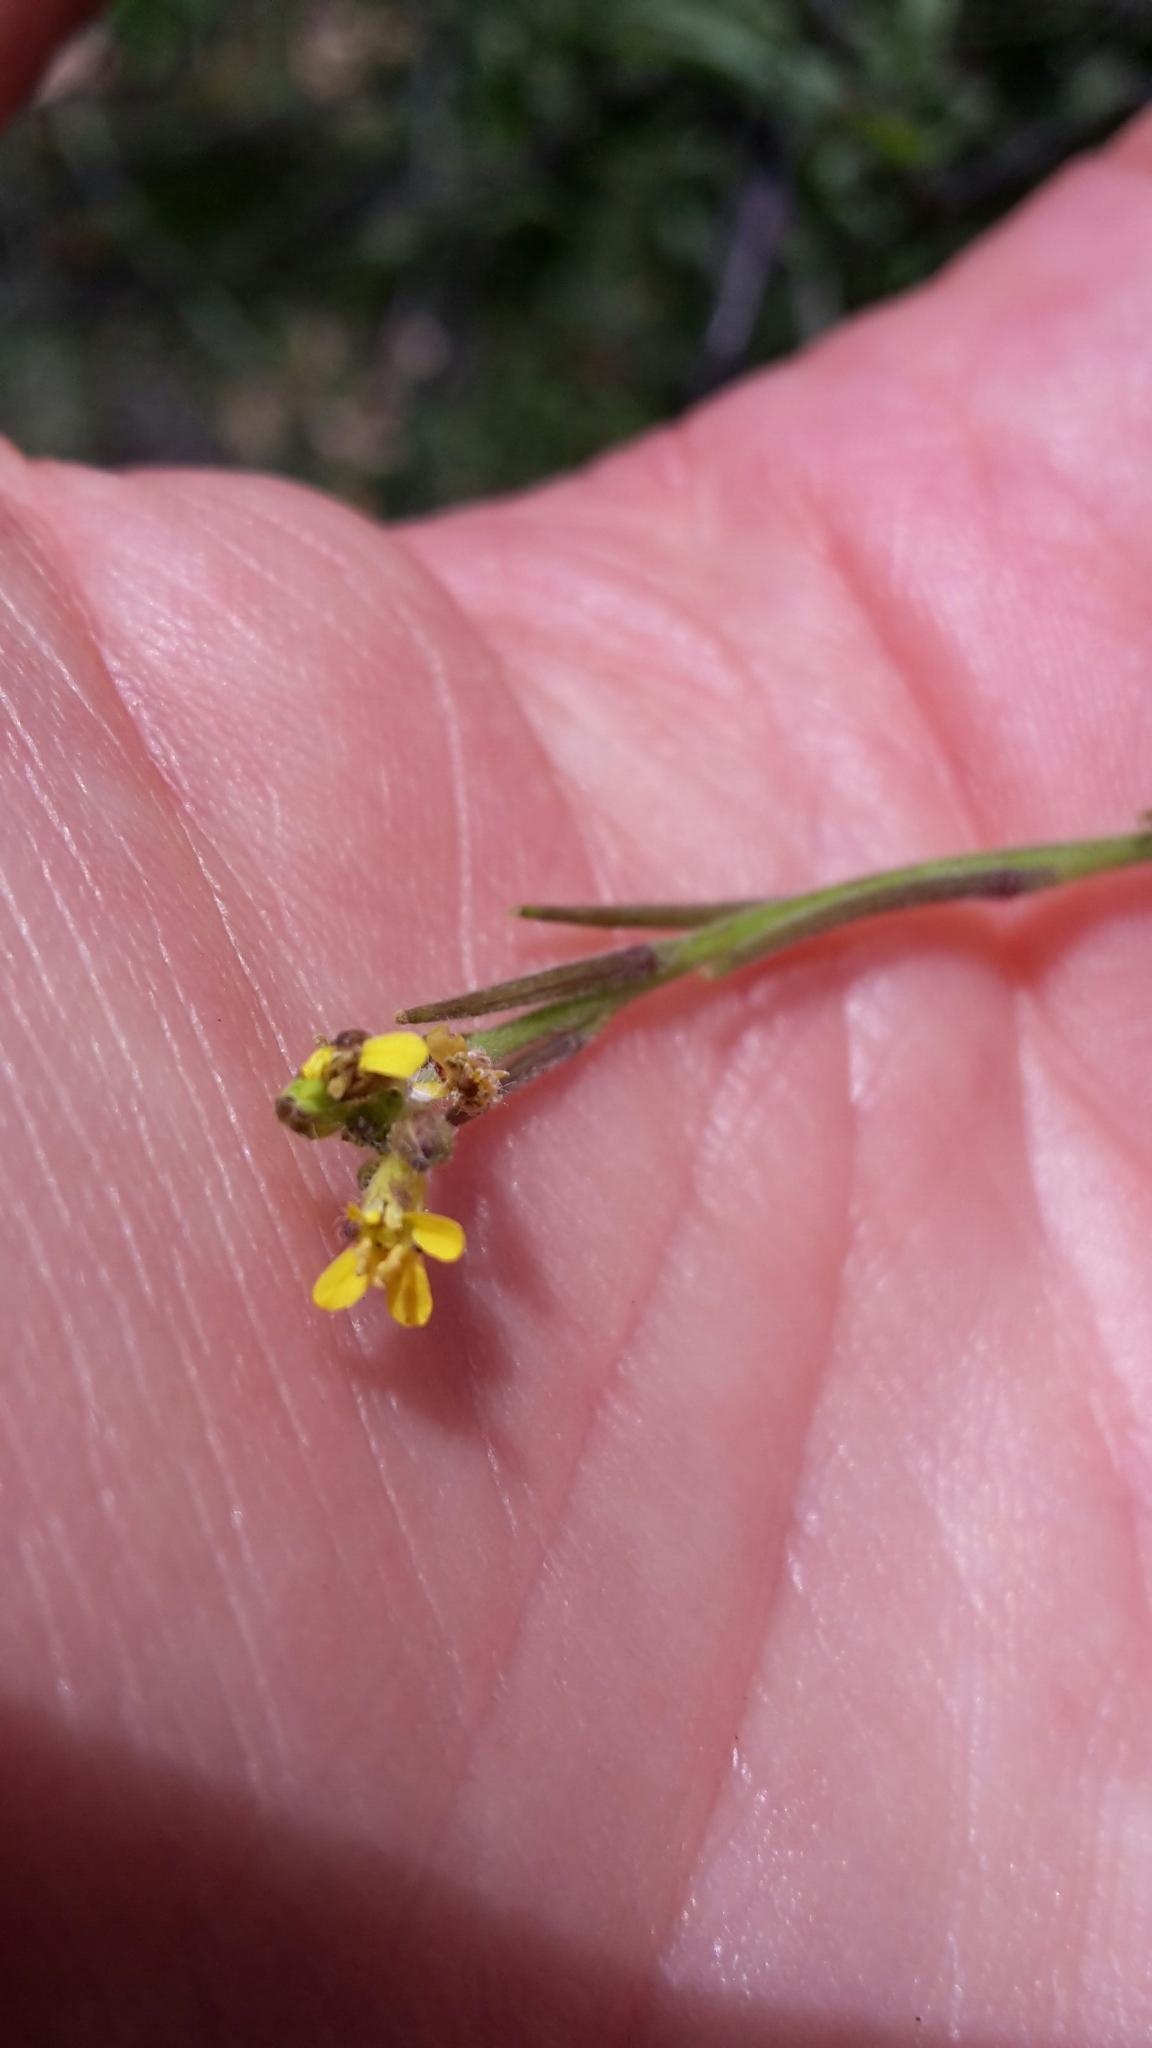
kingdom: Plantae
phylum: Tracheophyta
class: Magnoliopsida
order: Brassicales
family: Brassicaceae
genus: Sisymbrium
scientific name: Sisymbrium officinale
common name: Hedge mustard
